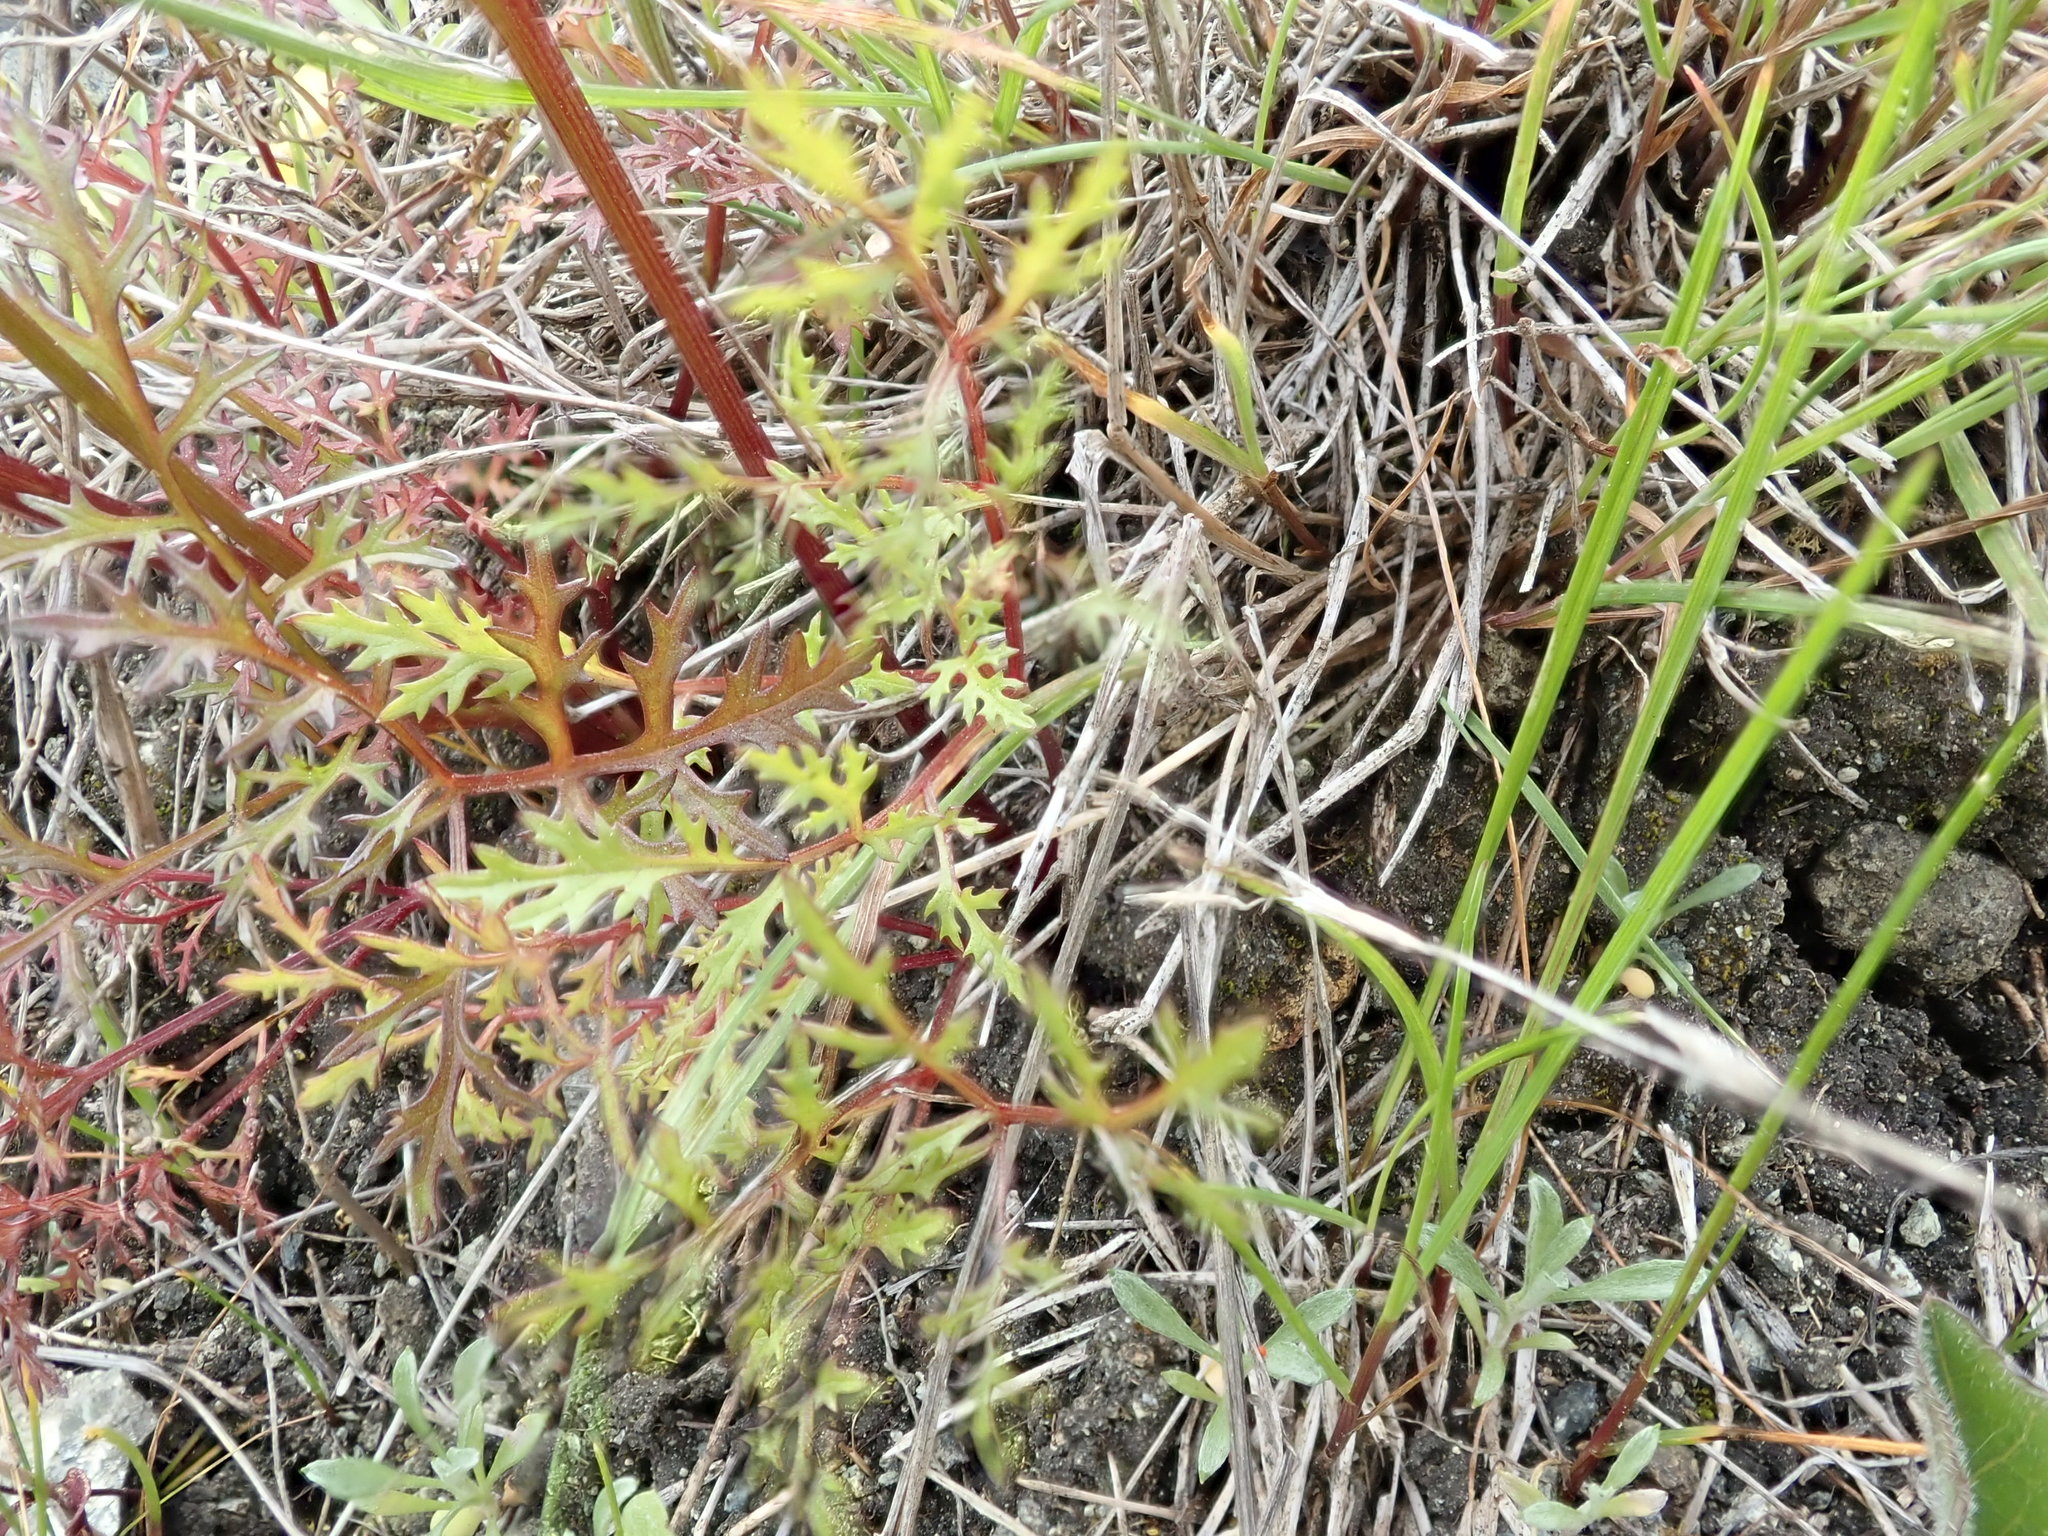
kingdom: Plantae
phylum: Tracheophyta
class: Magnoliopsida
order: Apiales
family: Apiaceae
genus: Sanicula
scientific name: Sanicula tuberosa
